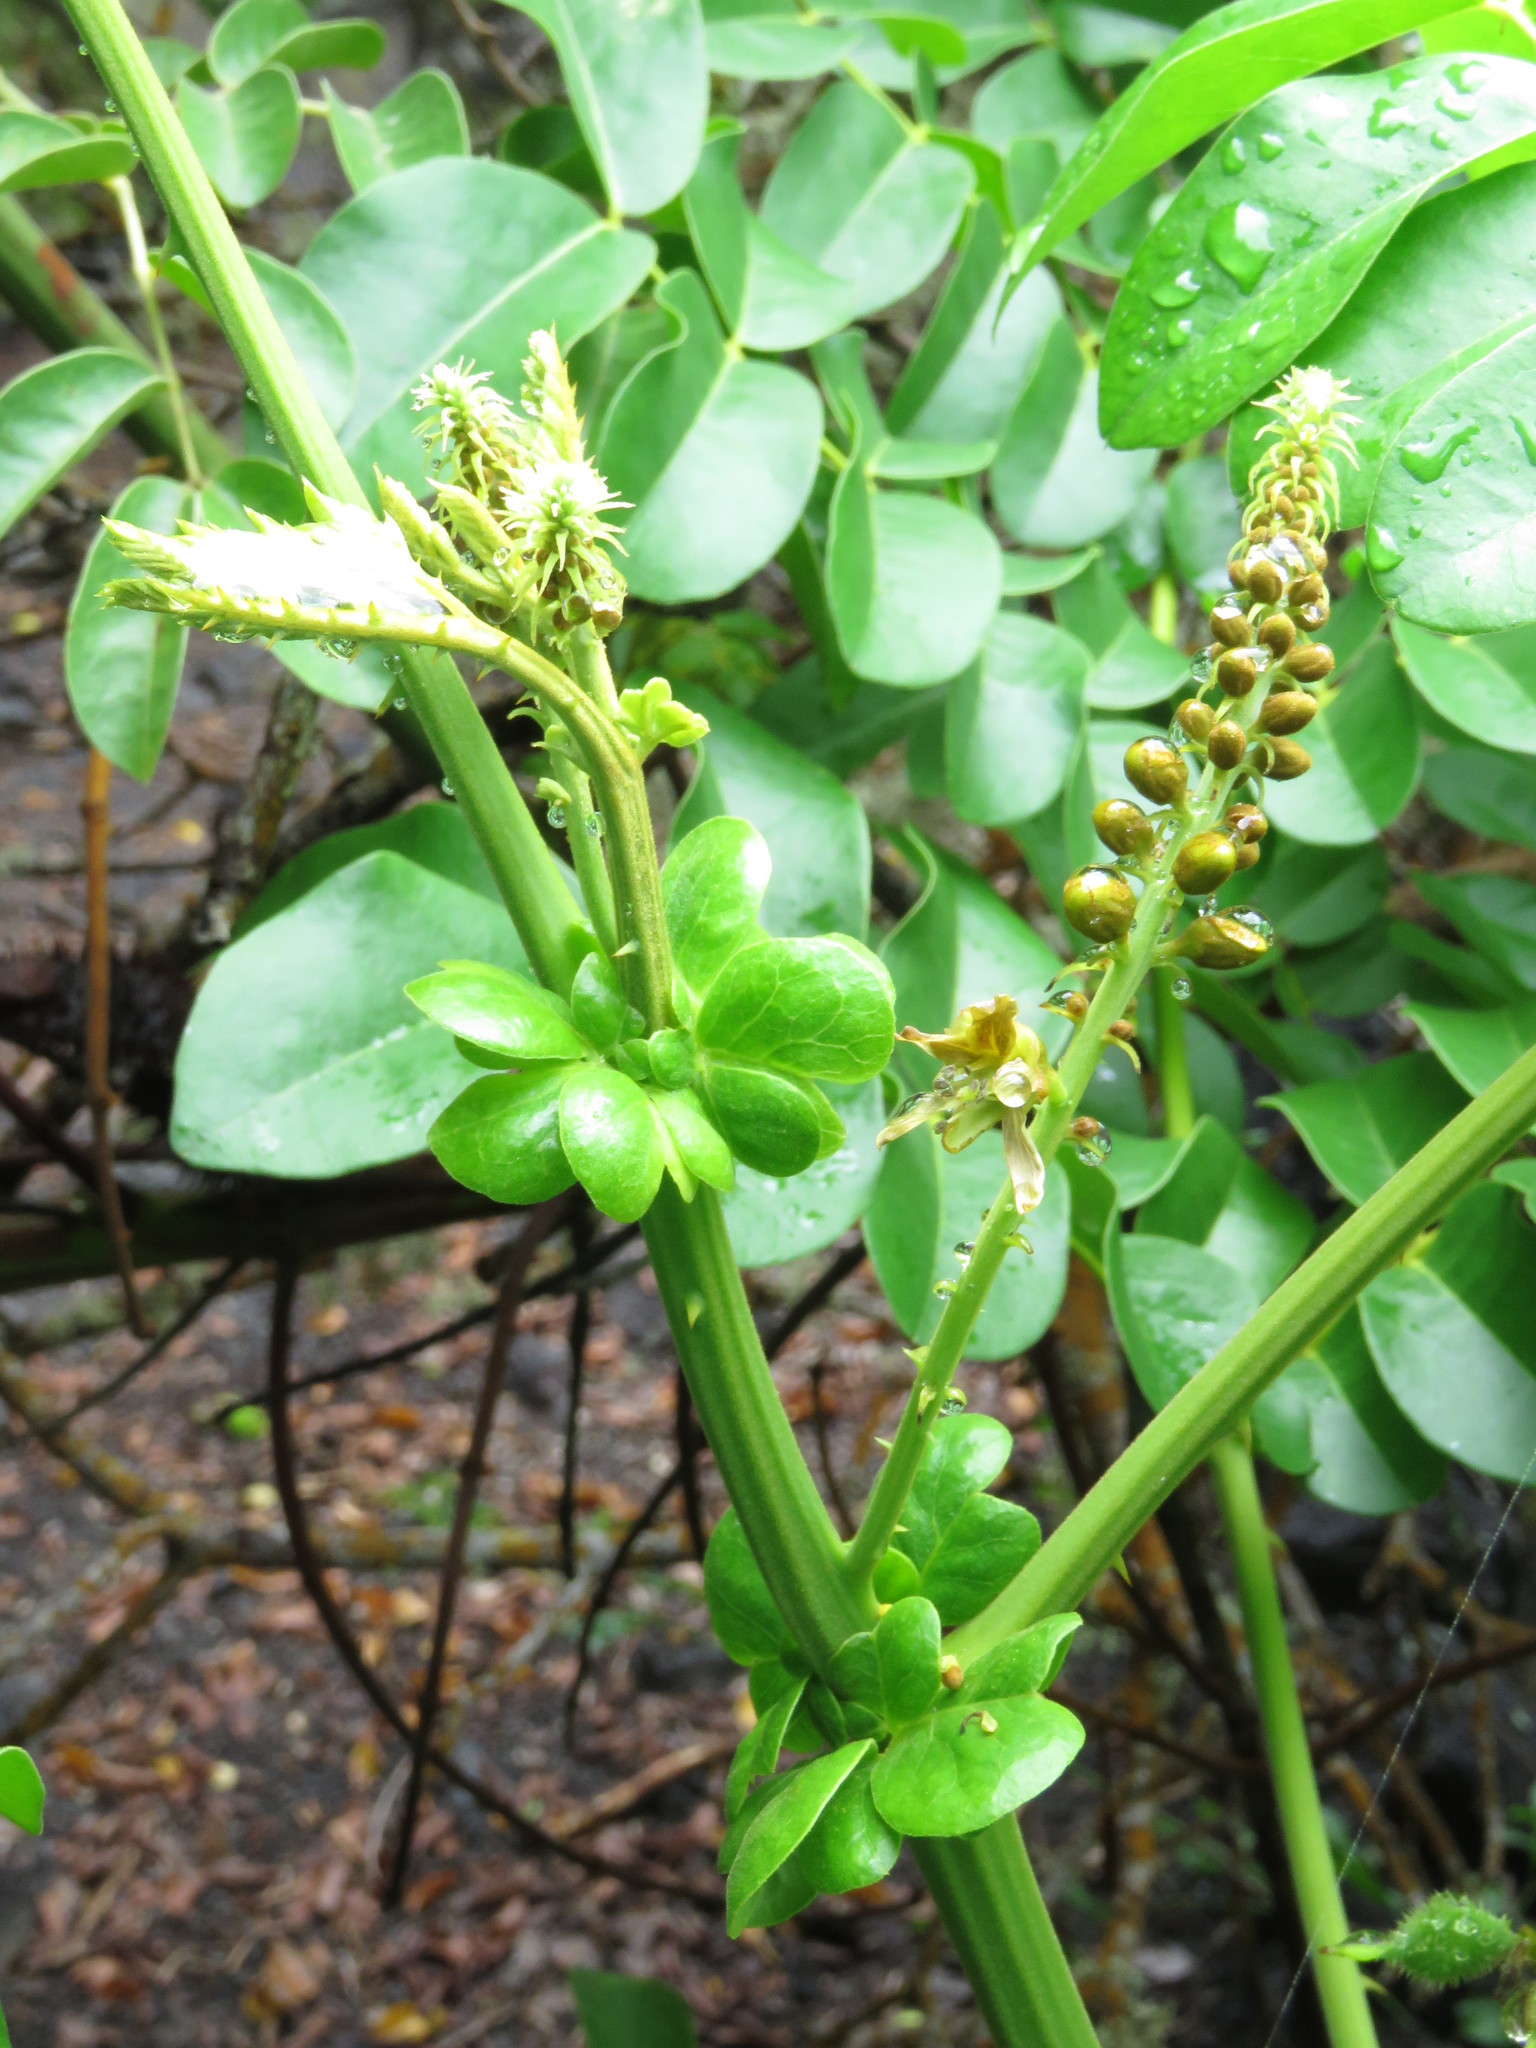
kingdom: Plantae
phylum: Tracheophyta
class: Magnoliopsida
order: Fabales
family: Fabaceae
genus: Guilandina
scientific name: Guilandina bonduc
